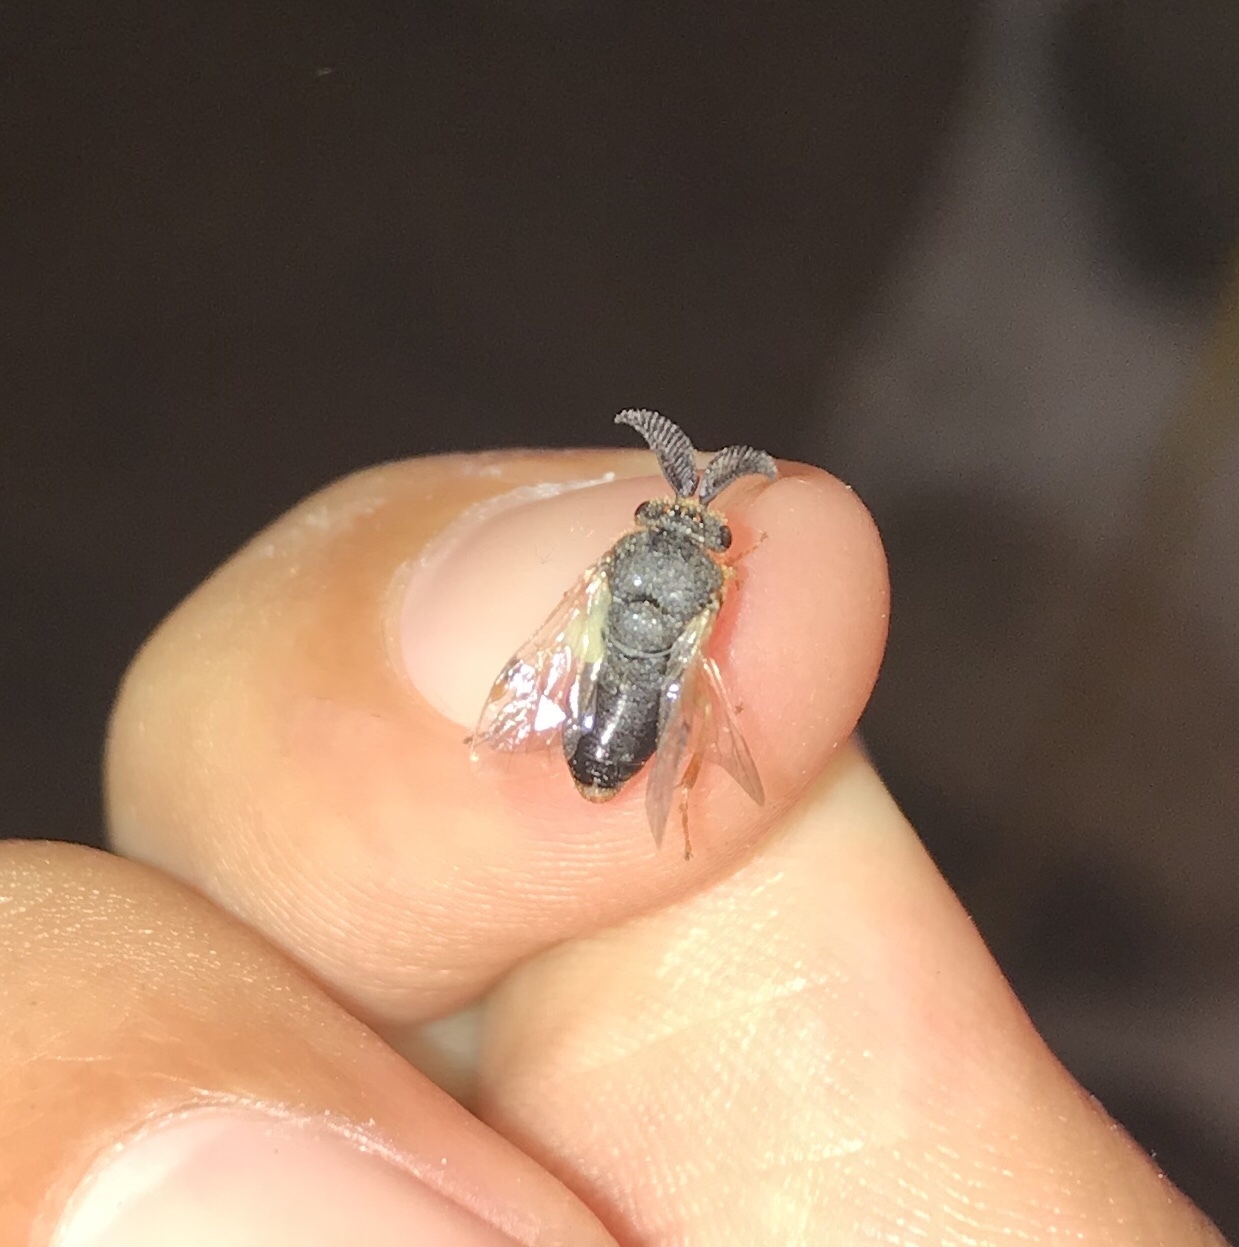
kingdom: Animalia
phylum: Arthropoda
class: Insecta
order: Hymenoptera
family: Diprionidae
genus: Diprion
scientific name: Diprion similis
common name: Pine sawfly
